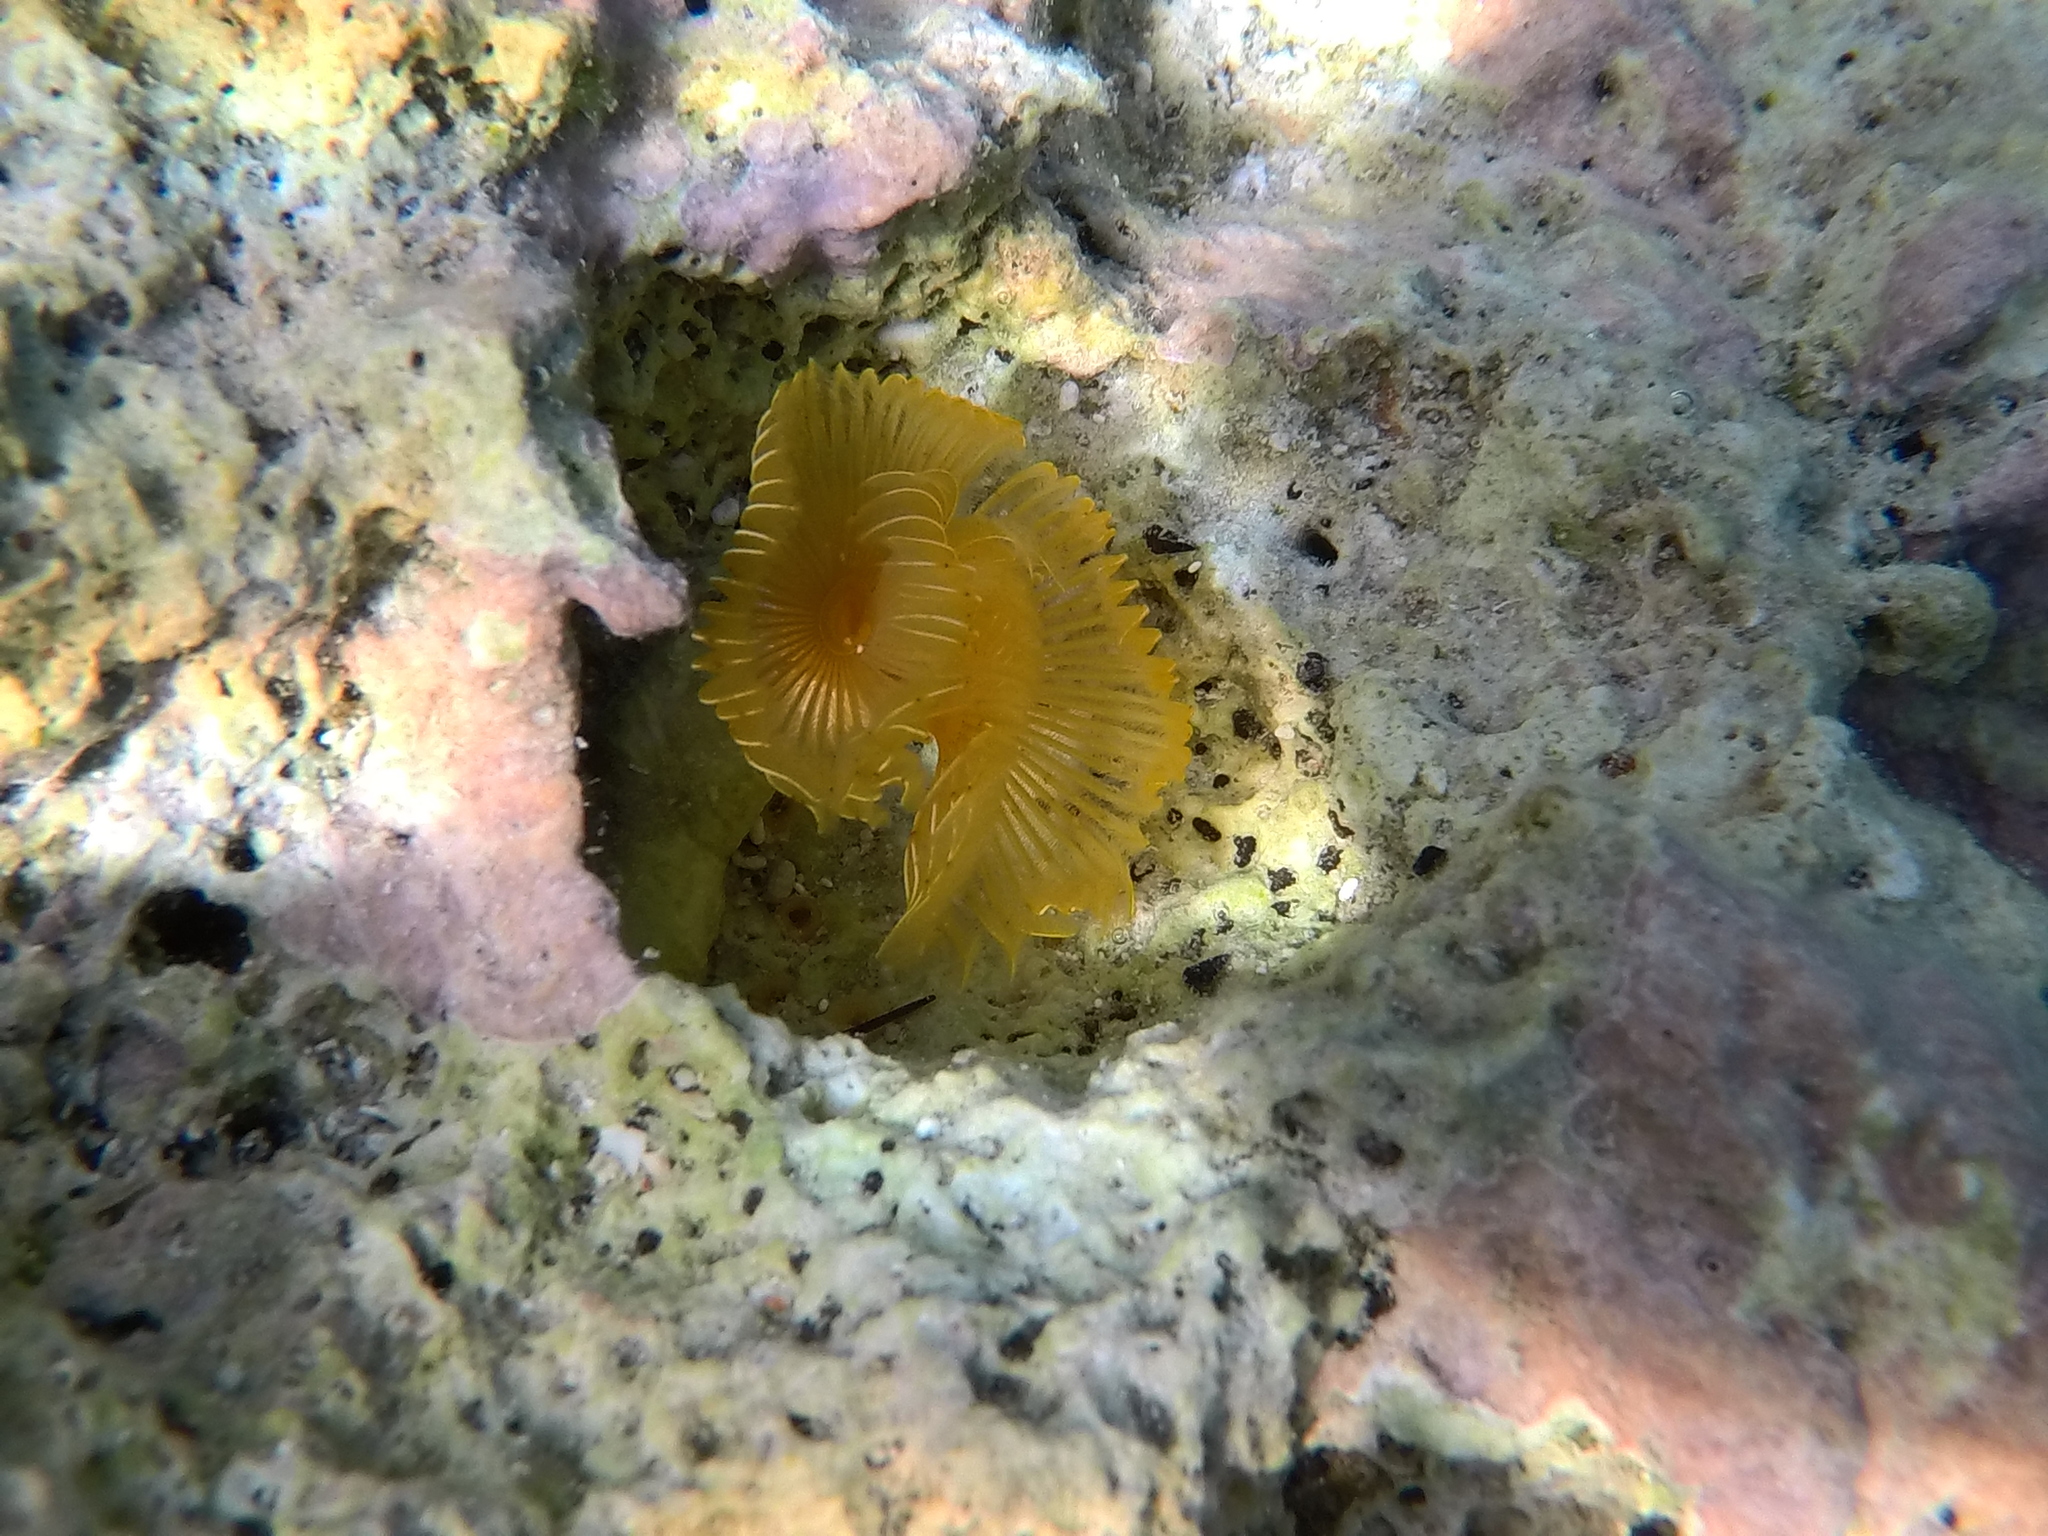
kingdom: Animalia
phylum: Annelida
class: Polychaeta
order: Sabellida
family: Serpulidae
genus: Protula
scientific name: Protula tubularia
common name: Red-spotted horseshoe
